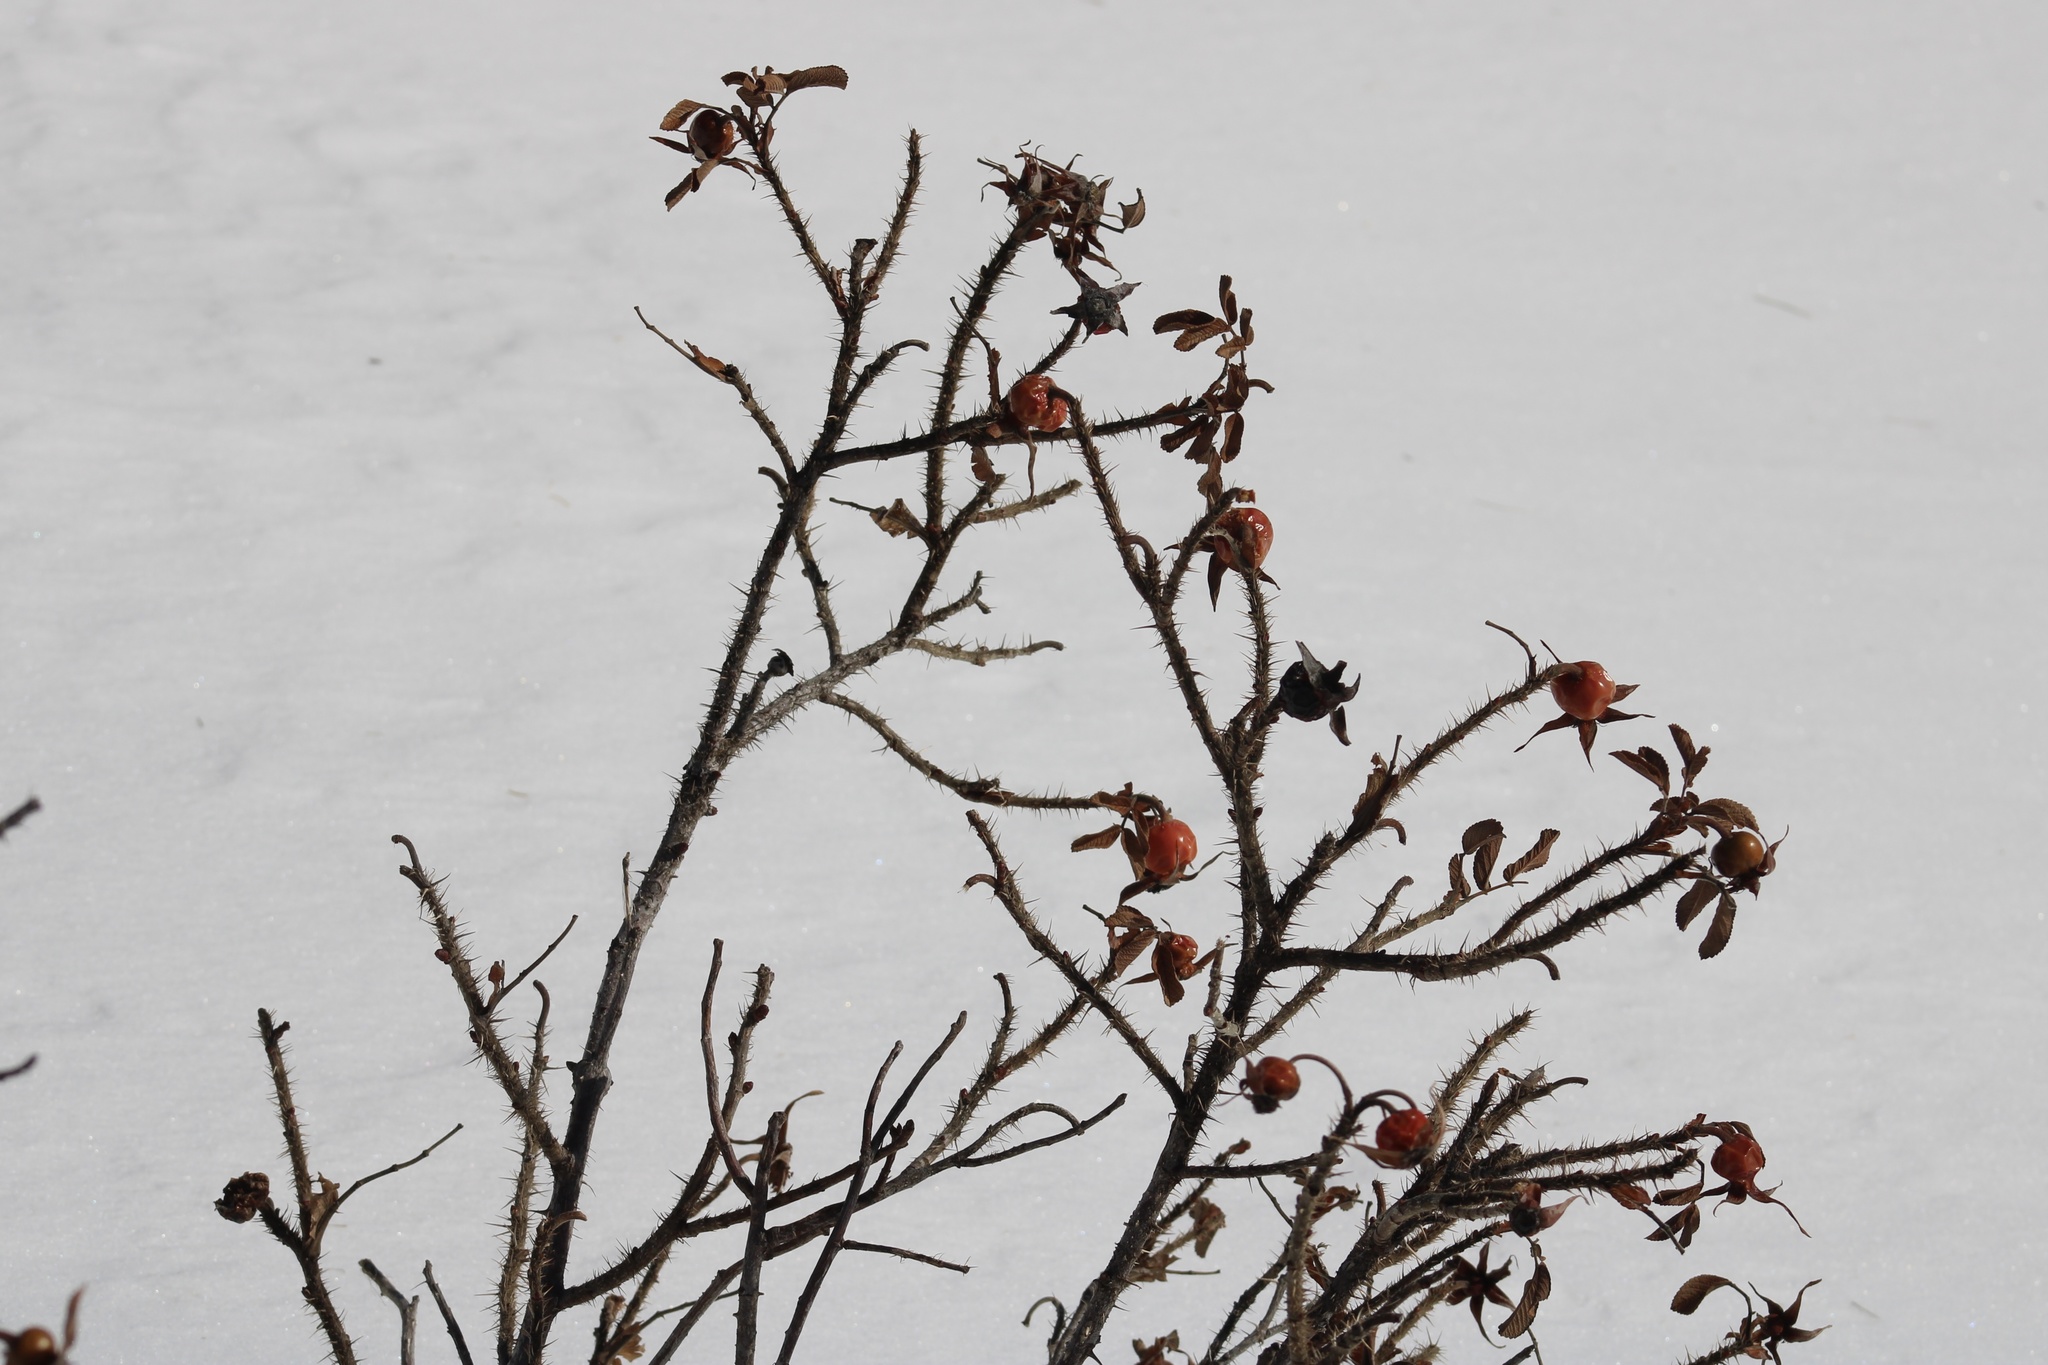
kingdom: Plantae
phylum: Tracheophyta
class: Magnoliopsida
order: Rosales
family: Rosaceae
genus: Rosa
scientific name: Rosa rugosa
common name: Japanese rose
